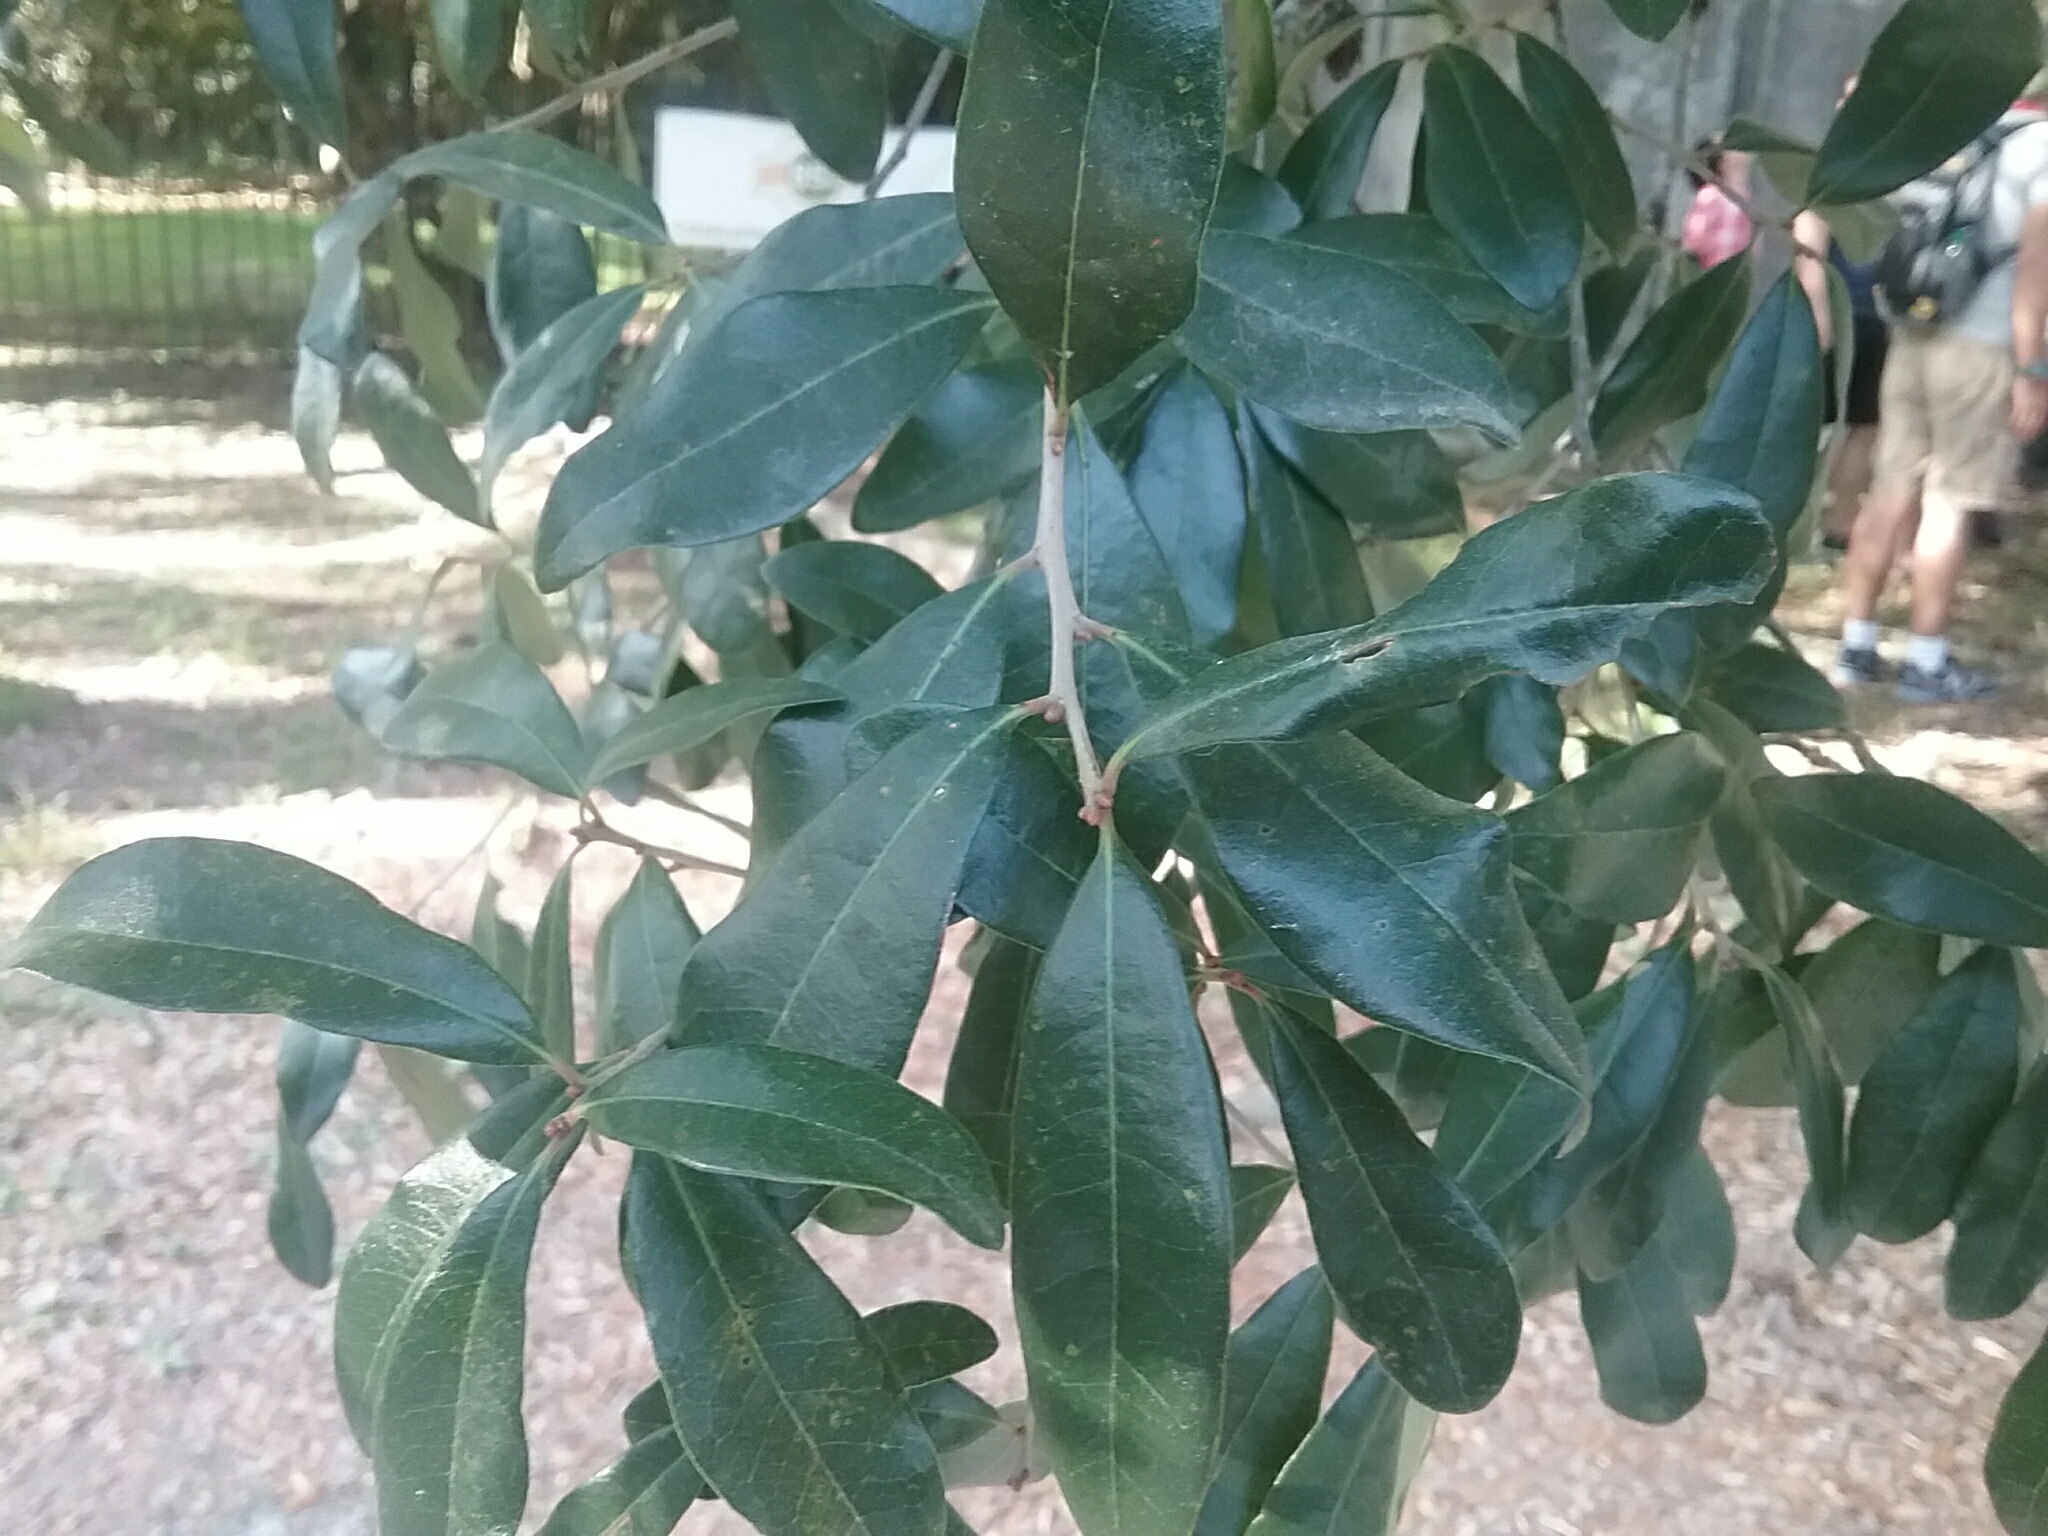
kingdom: Plantae
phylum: Tracheophyta
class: Magnoliopsida
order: Fagales
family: Fagaceae
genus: Quercus
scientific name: Quercus virginiana
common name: Southern live oak
